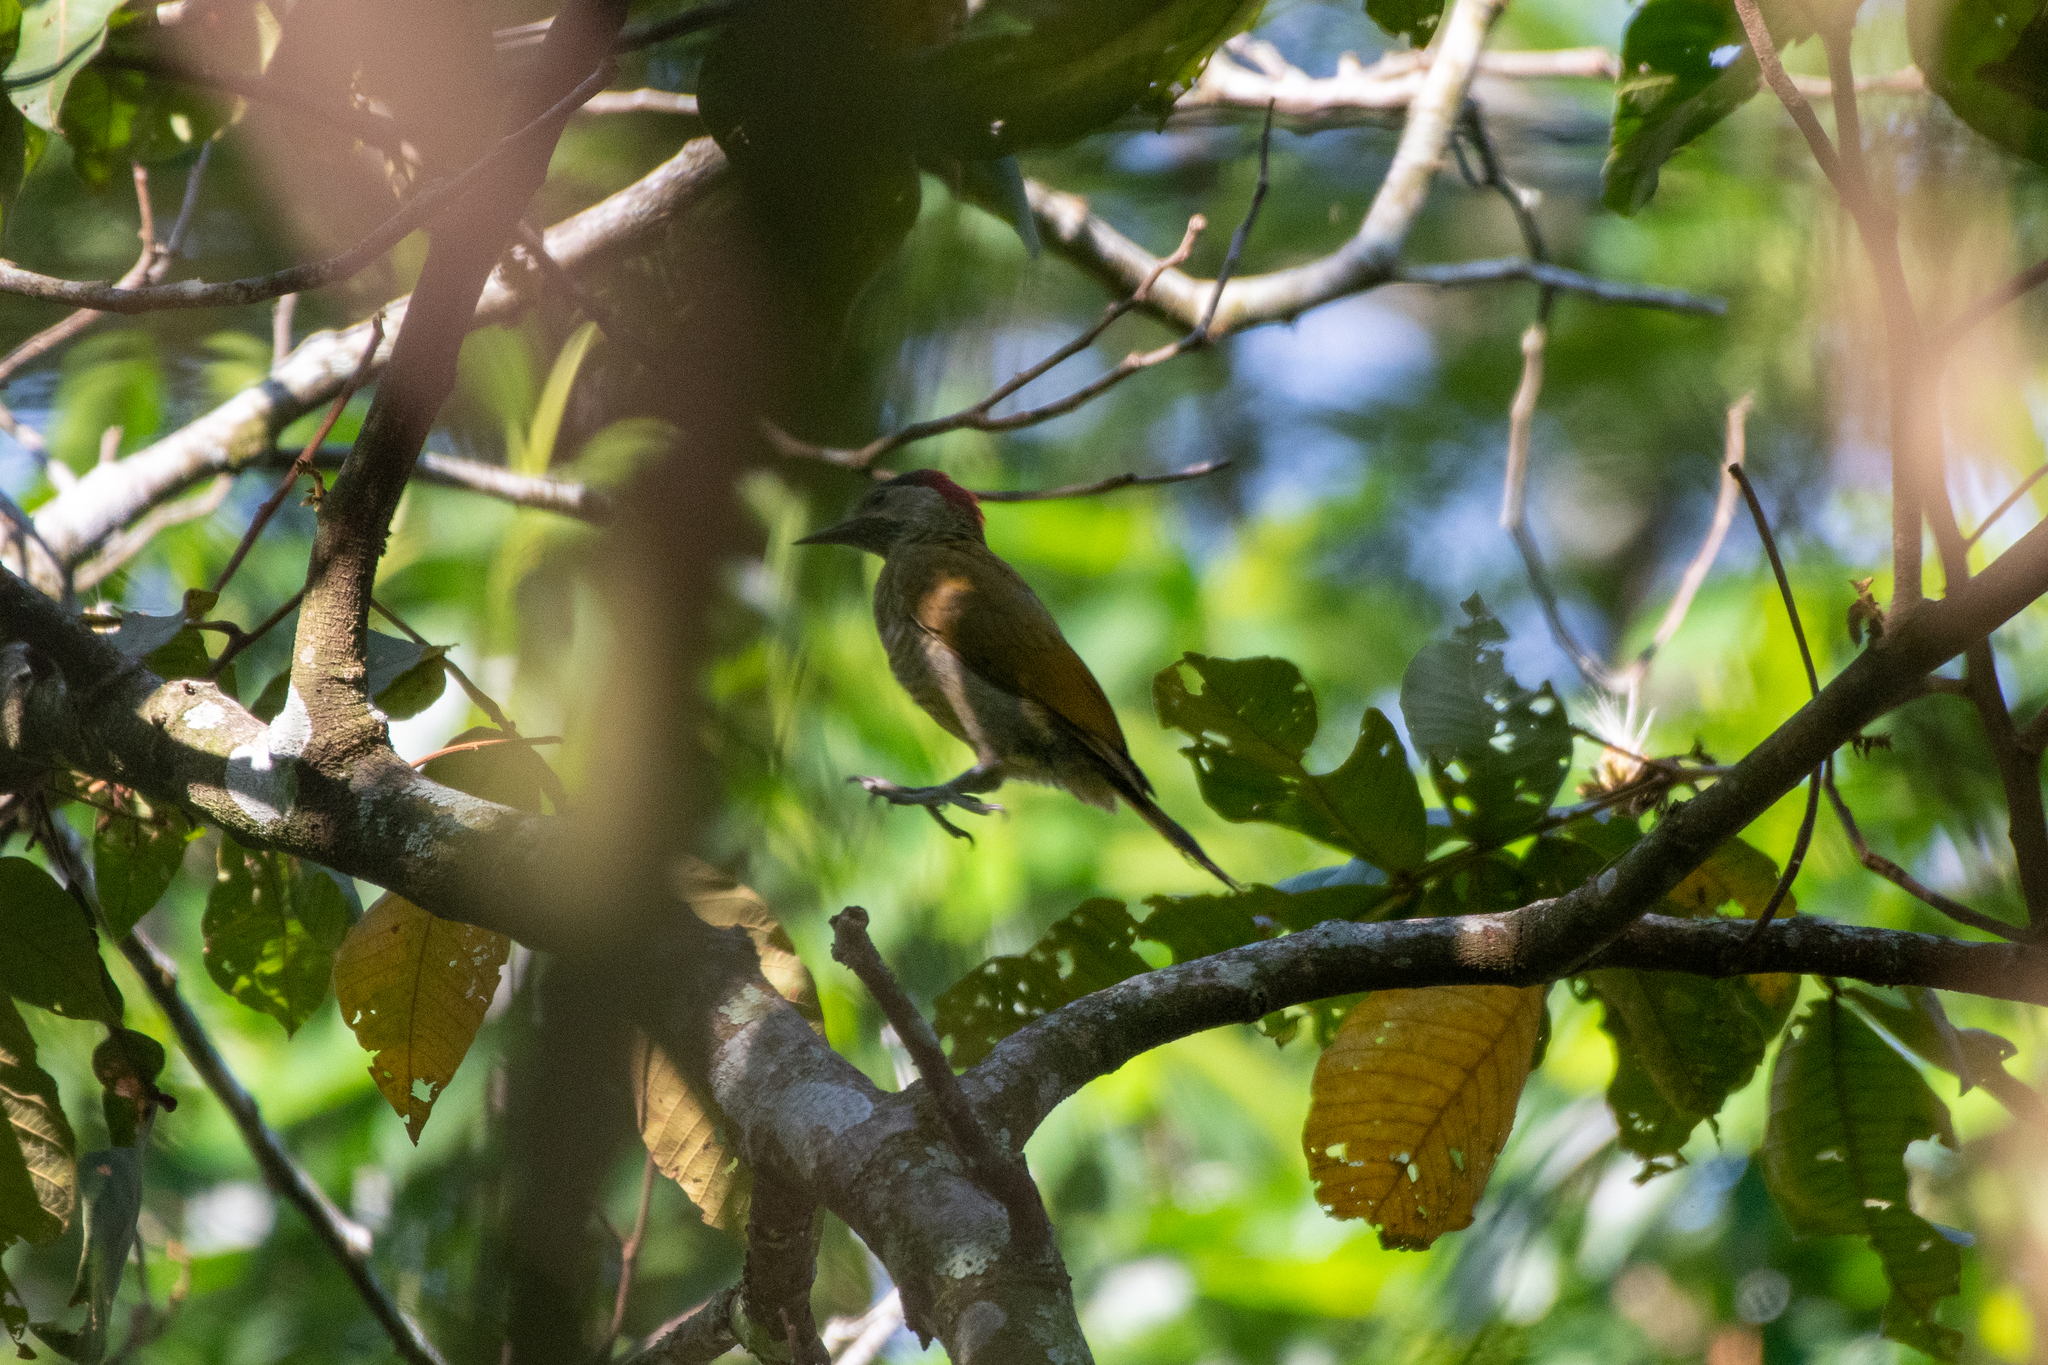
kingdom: Animalia
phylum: Chordata
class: Aves
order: Piciformes
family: Picidae
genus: Colaptes
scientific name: Colaptes rubiginosus
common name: Golden-olive woodpecker
